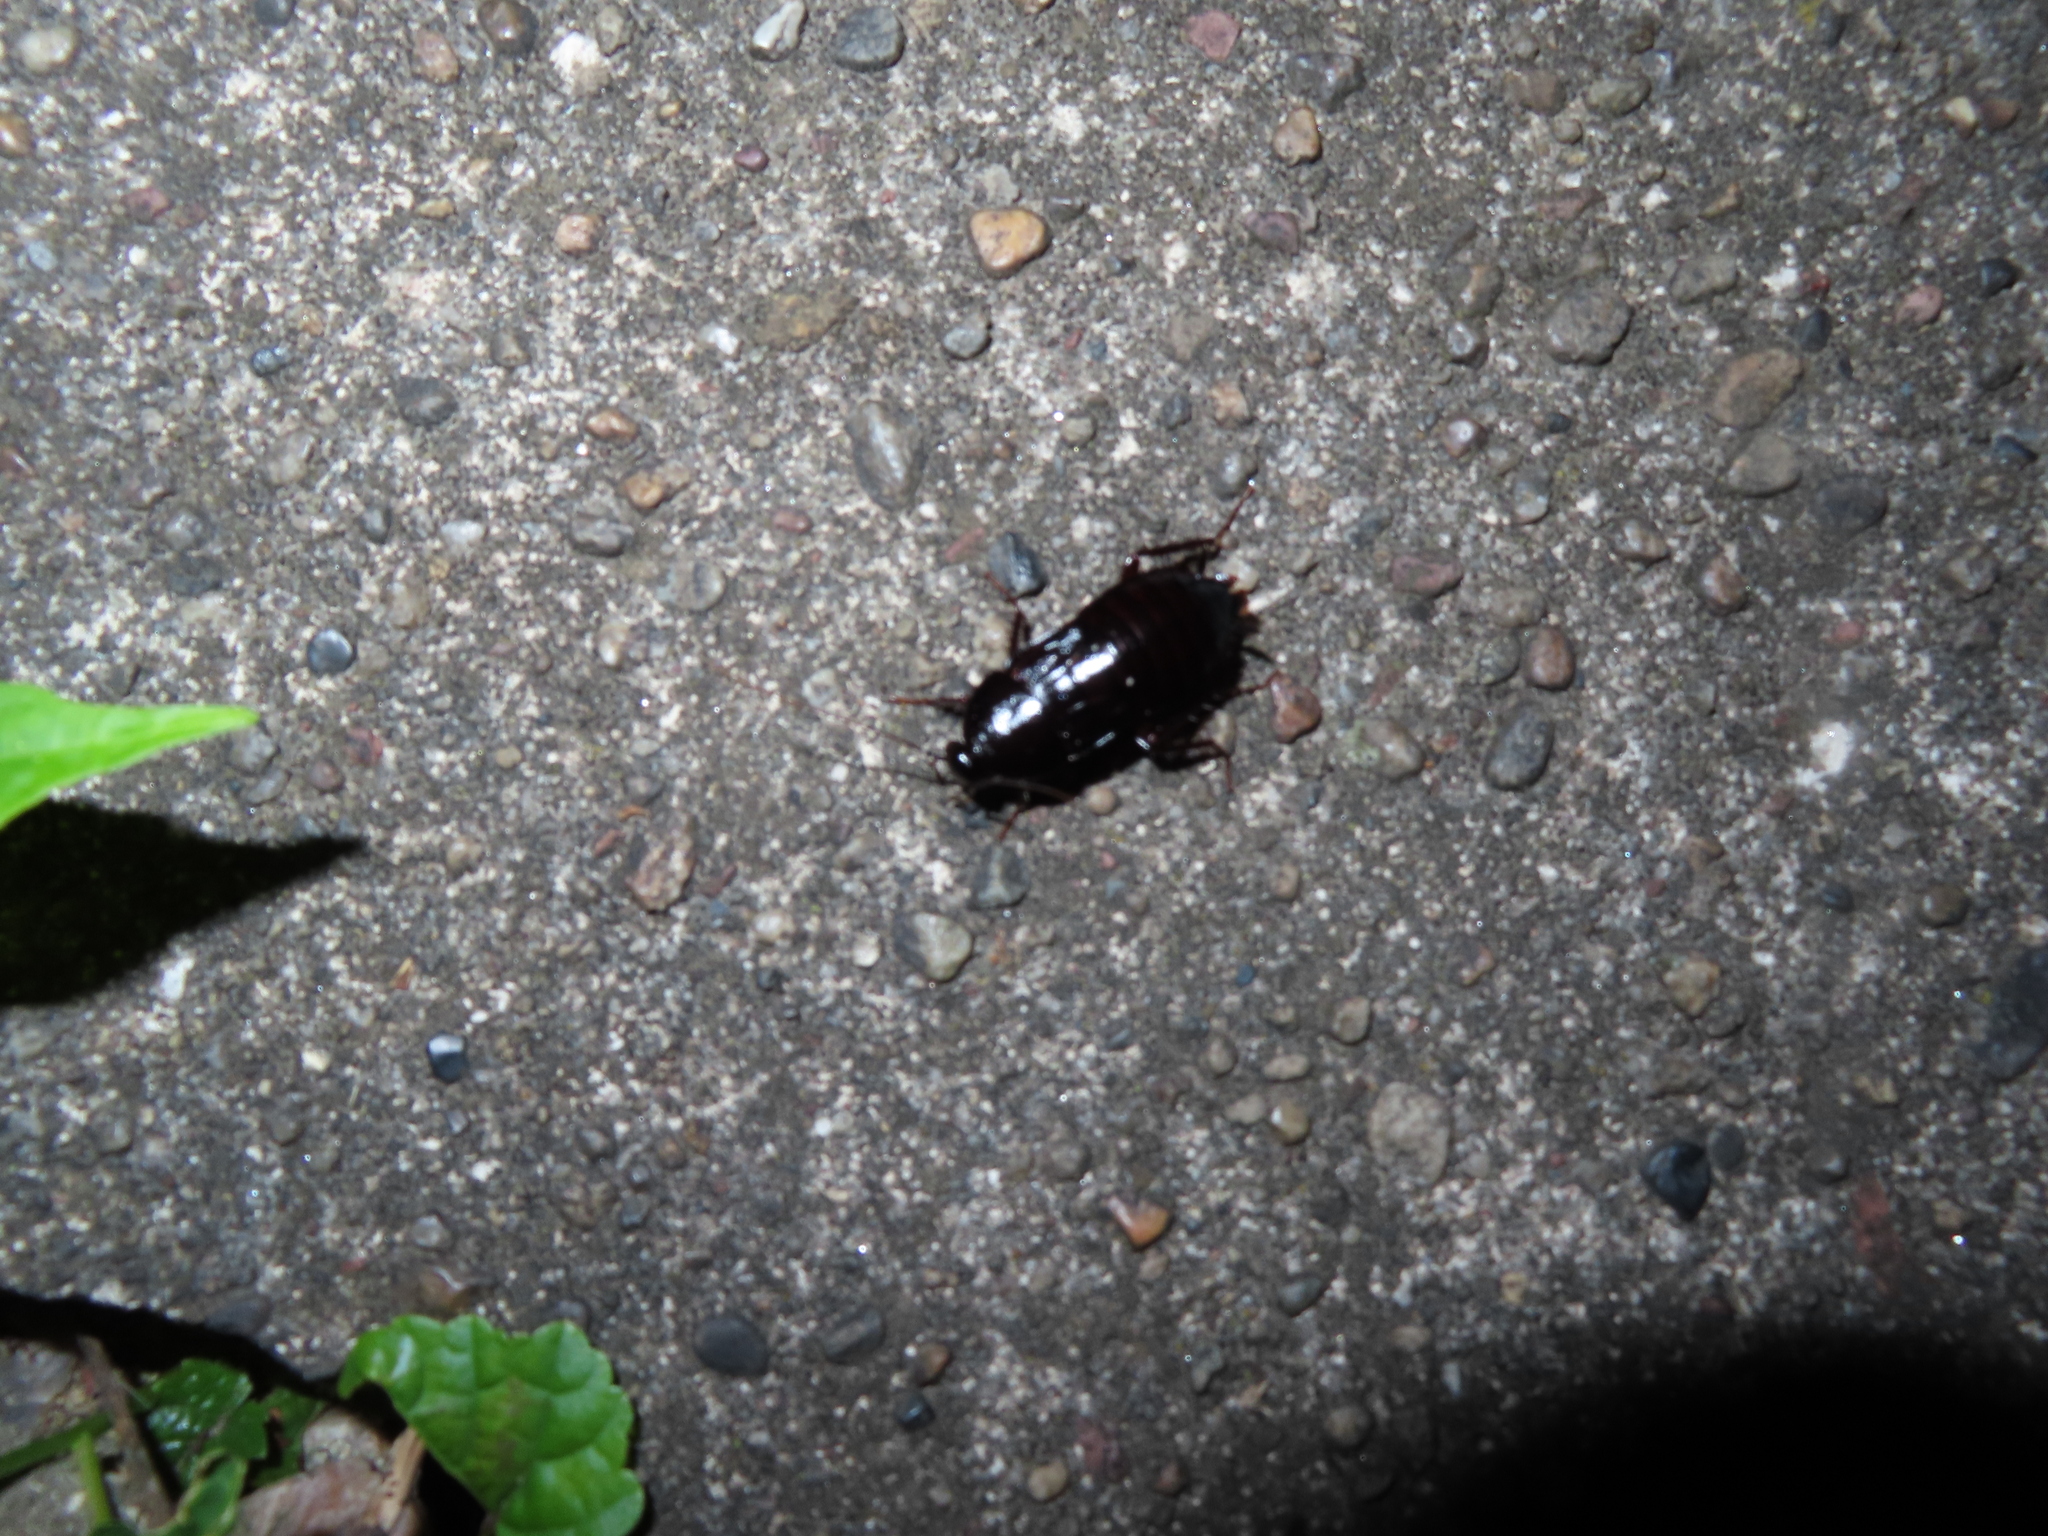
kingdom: Animalia
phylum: Arthropoda
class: Insecta
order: Blattodea
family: Blattidae
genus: Blatta
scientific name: Blatta orientalis
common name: Oriental cockroach
